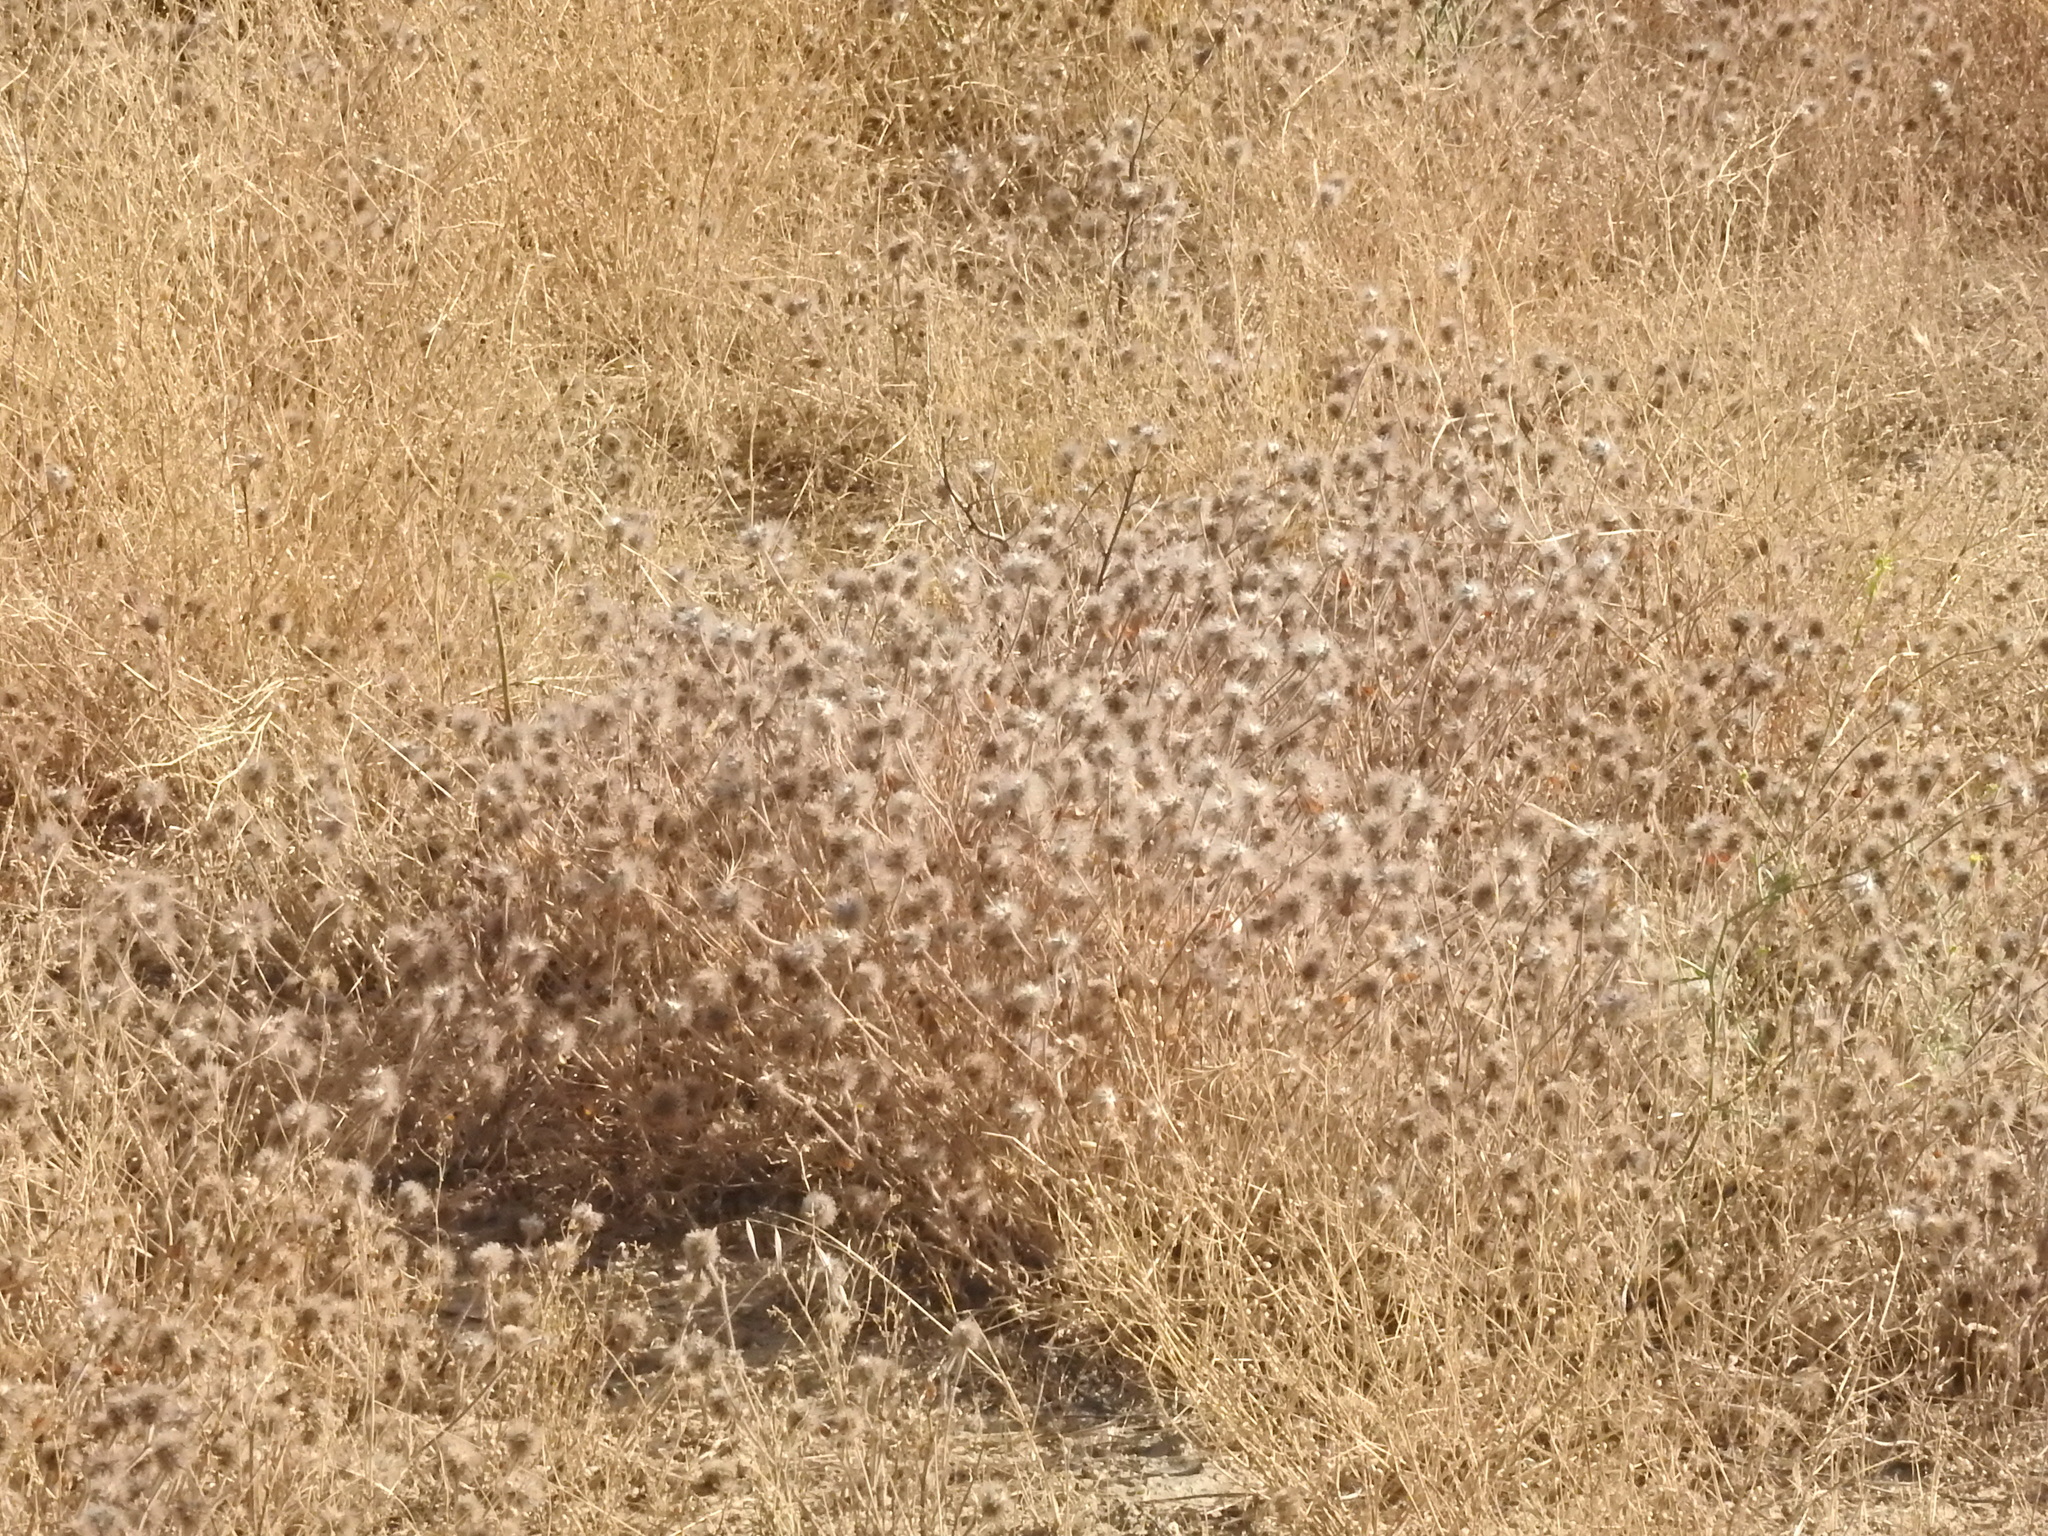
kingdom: Plantae
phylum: Tracheophyta
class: Magnoliopsida
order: Fabales
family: Fabaceae
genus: Trifolium
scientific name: Trifolium hirtum
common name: Rose clover
